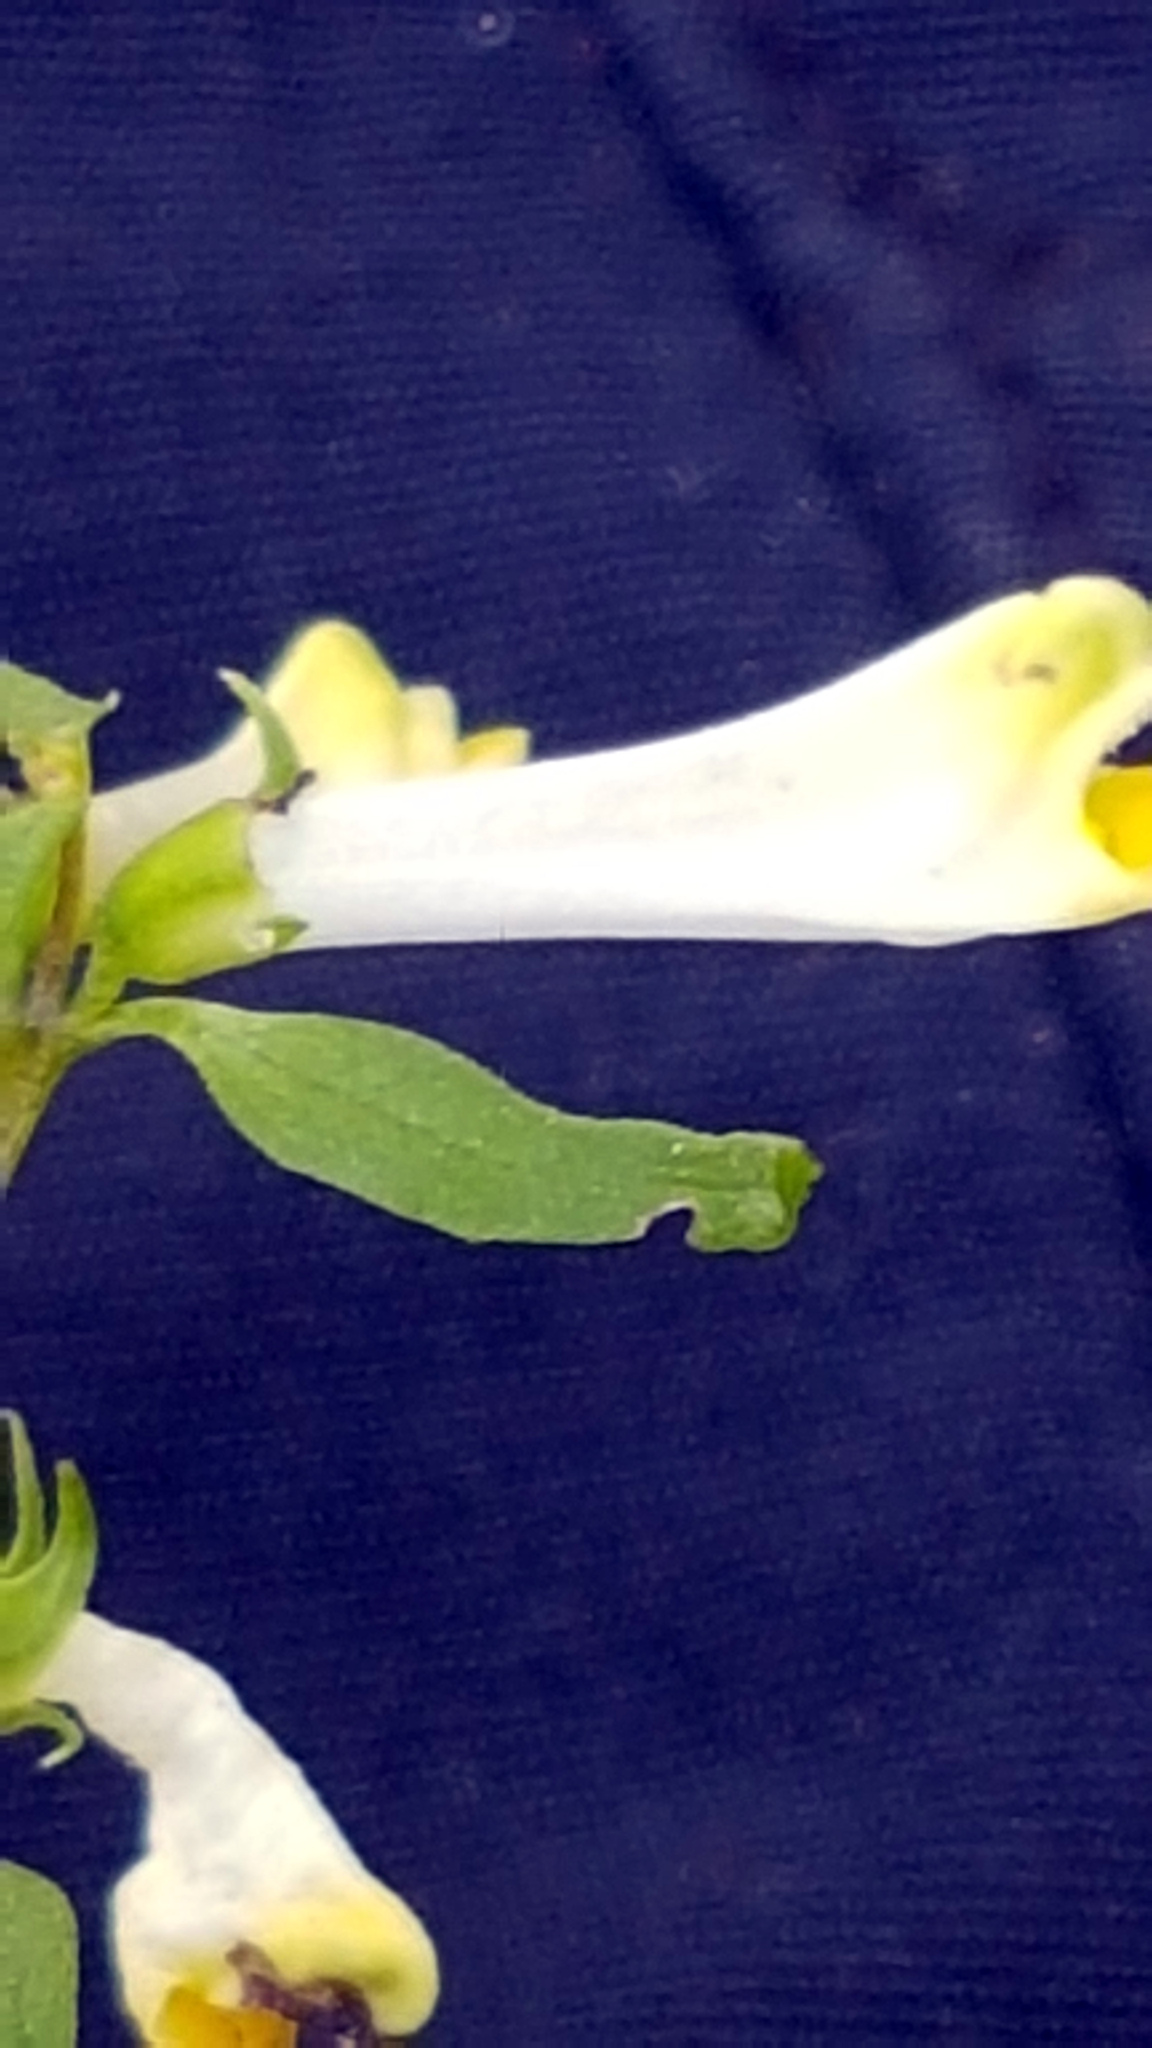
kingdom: Plantae
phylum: Tracheophyta
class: Magnoliopsida
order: Lamiales
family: Orobanchaceae
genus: Melampyrum
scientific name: Melampyrum pratense
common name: Common cow-wheat
